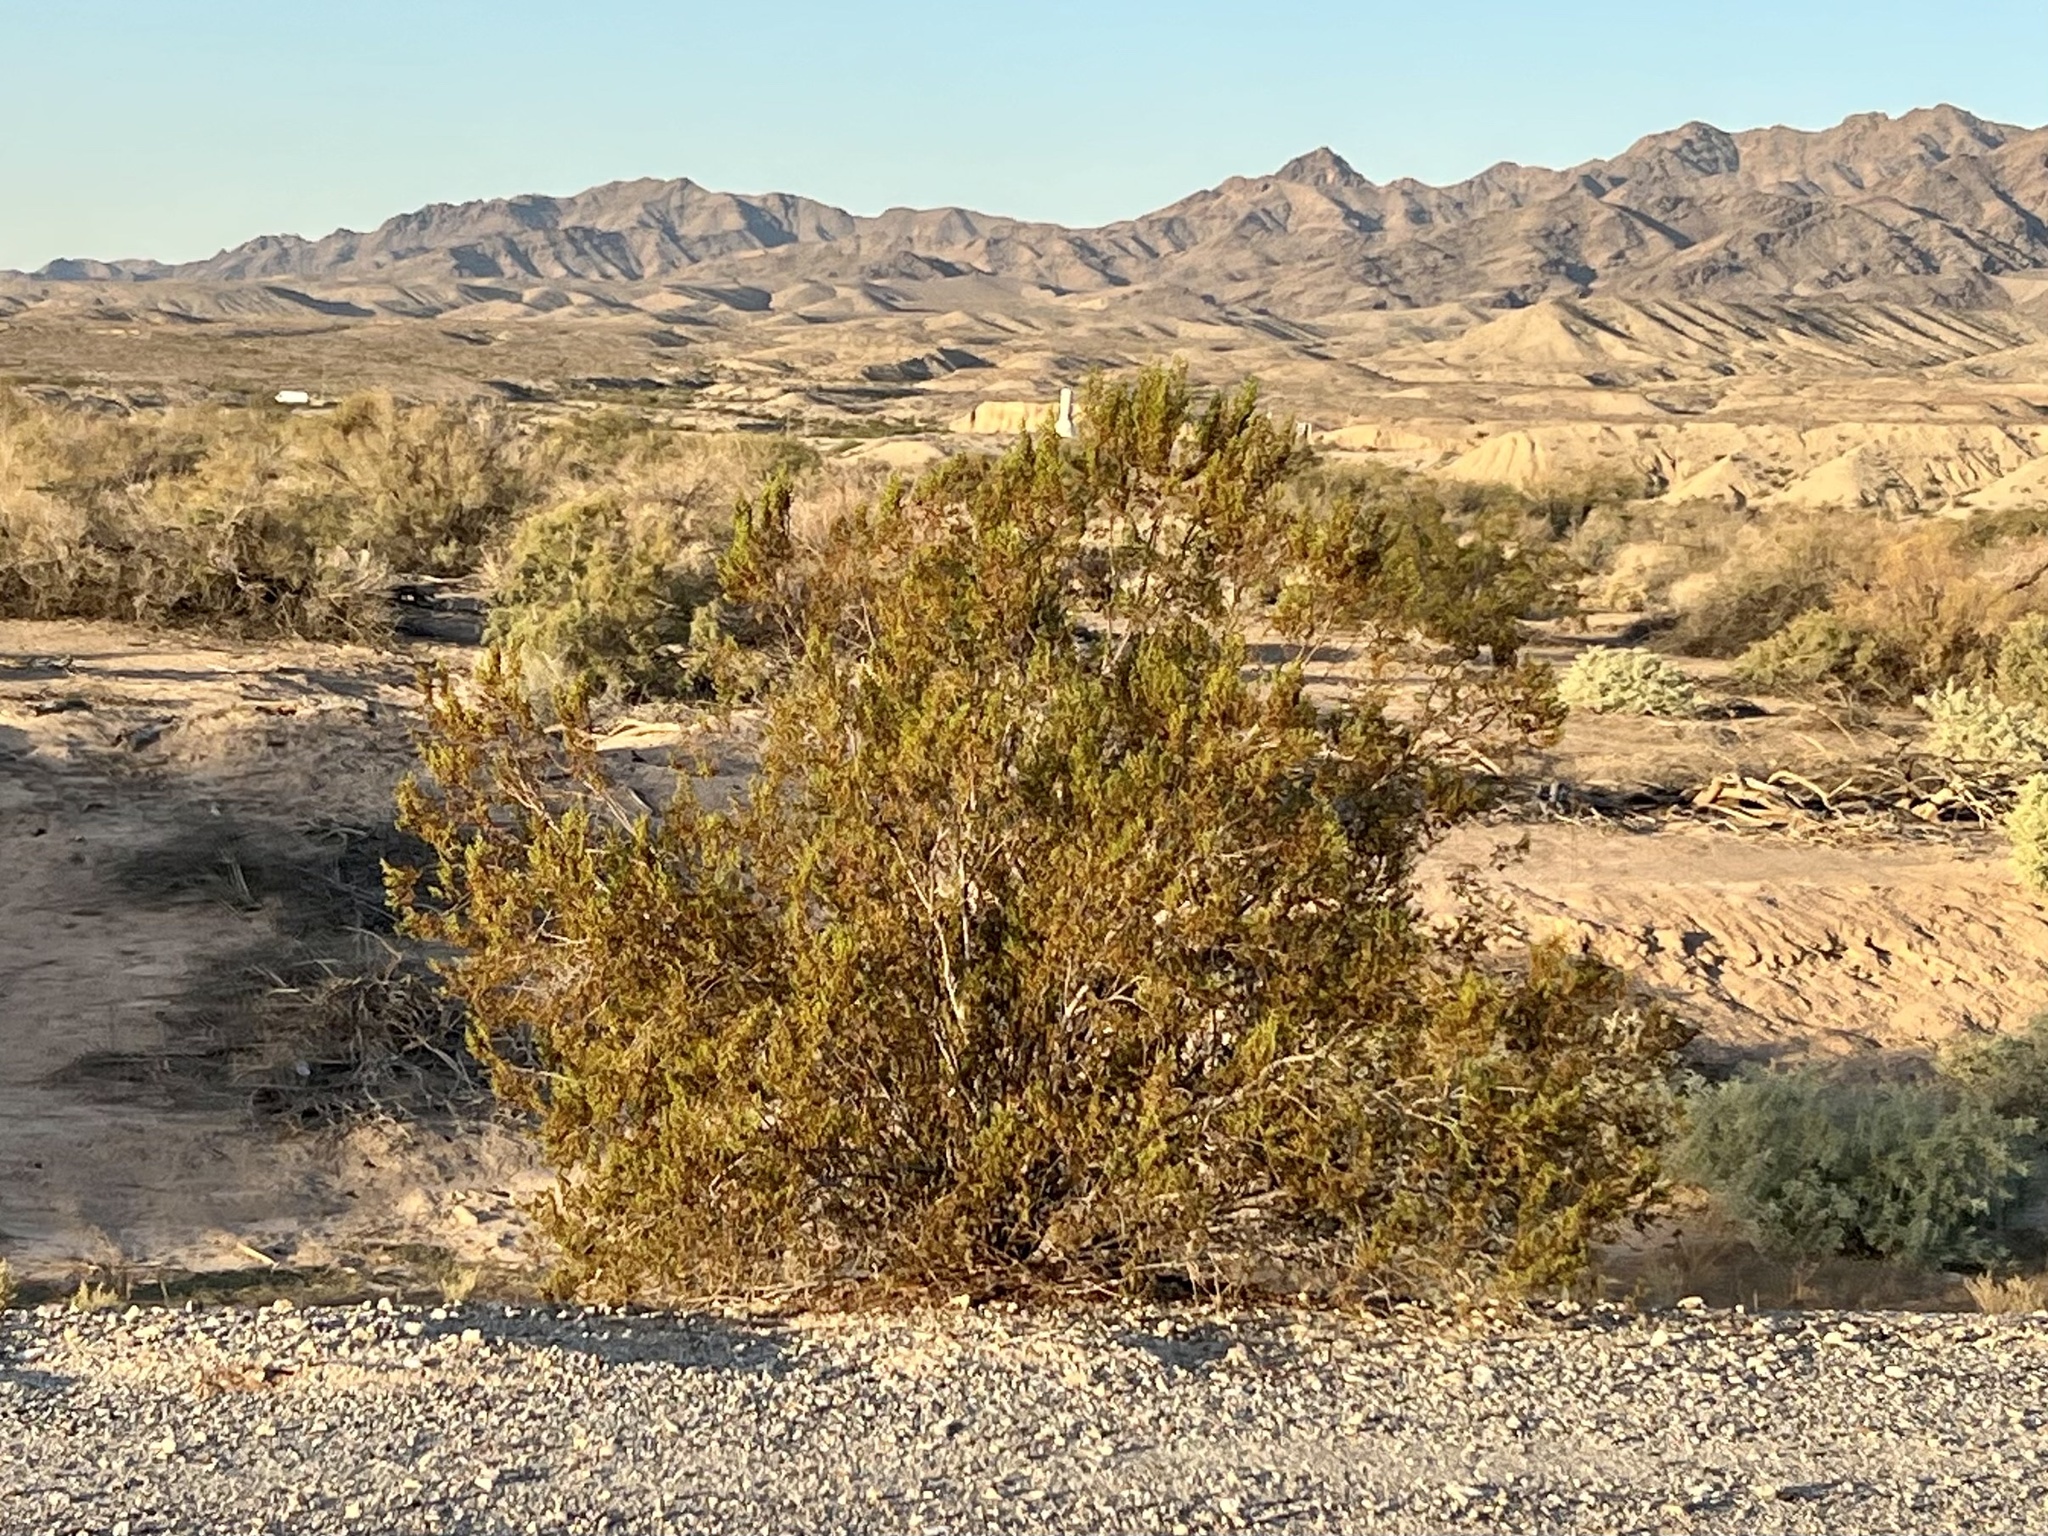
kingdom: Plantae
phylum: Tracheophyta
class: Magnoliopsida
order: Zygophyllales
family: Zygophyllaceae
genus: Larrea
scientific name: Larrea tridentata
